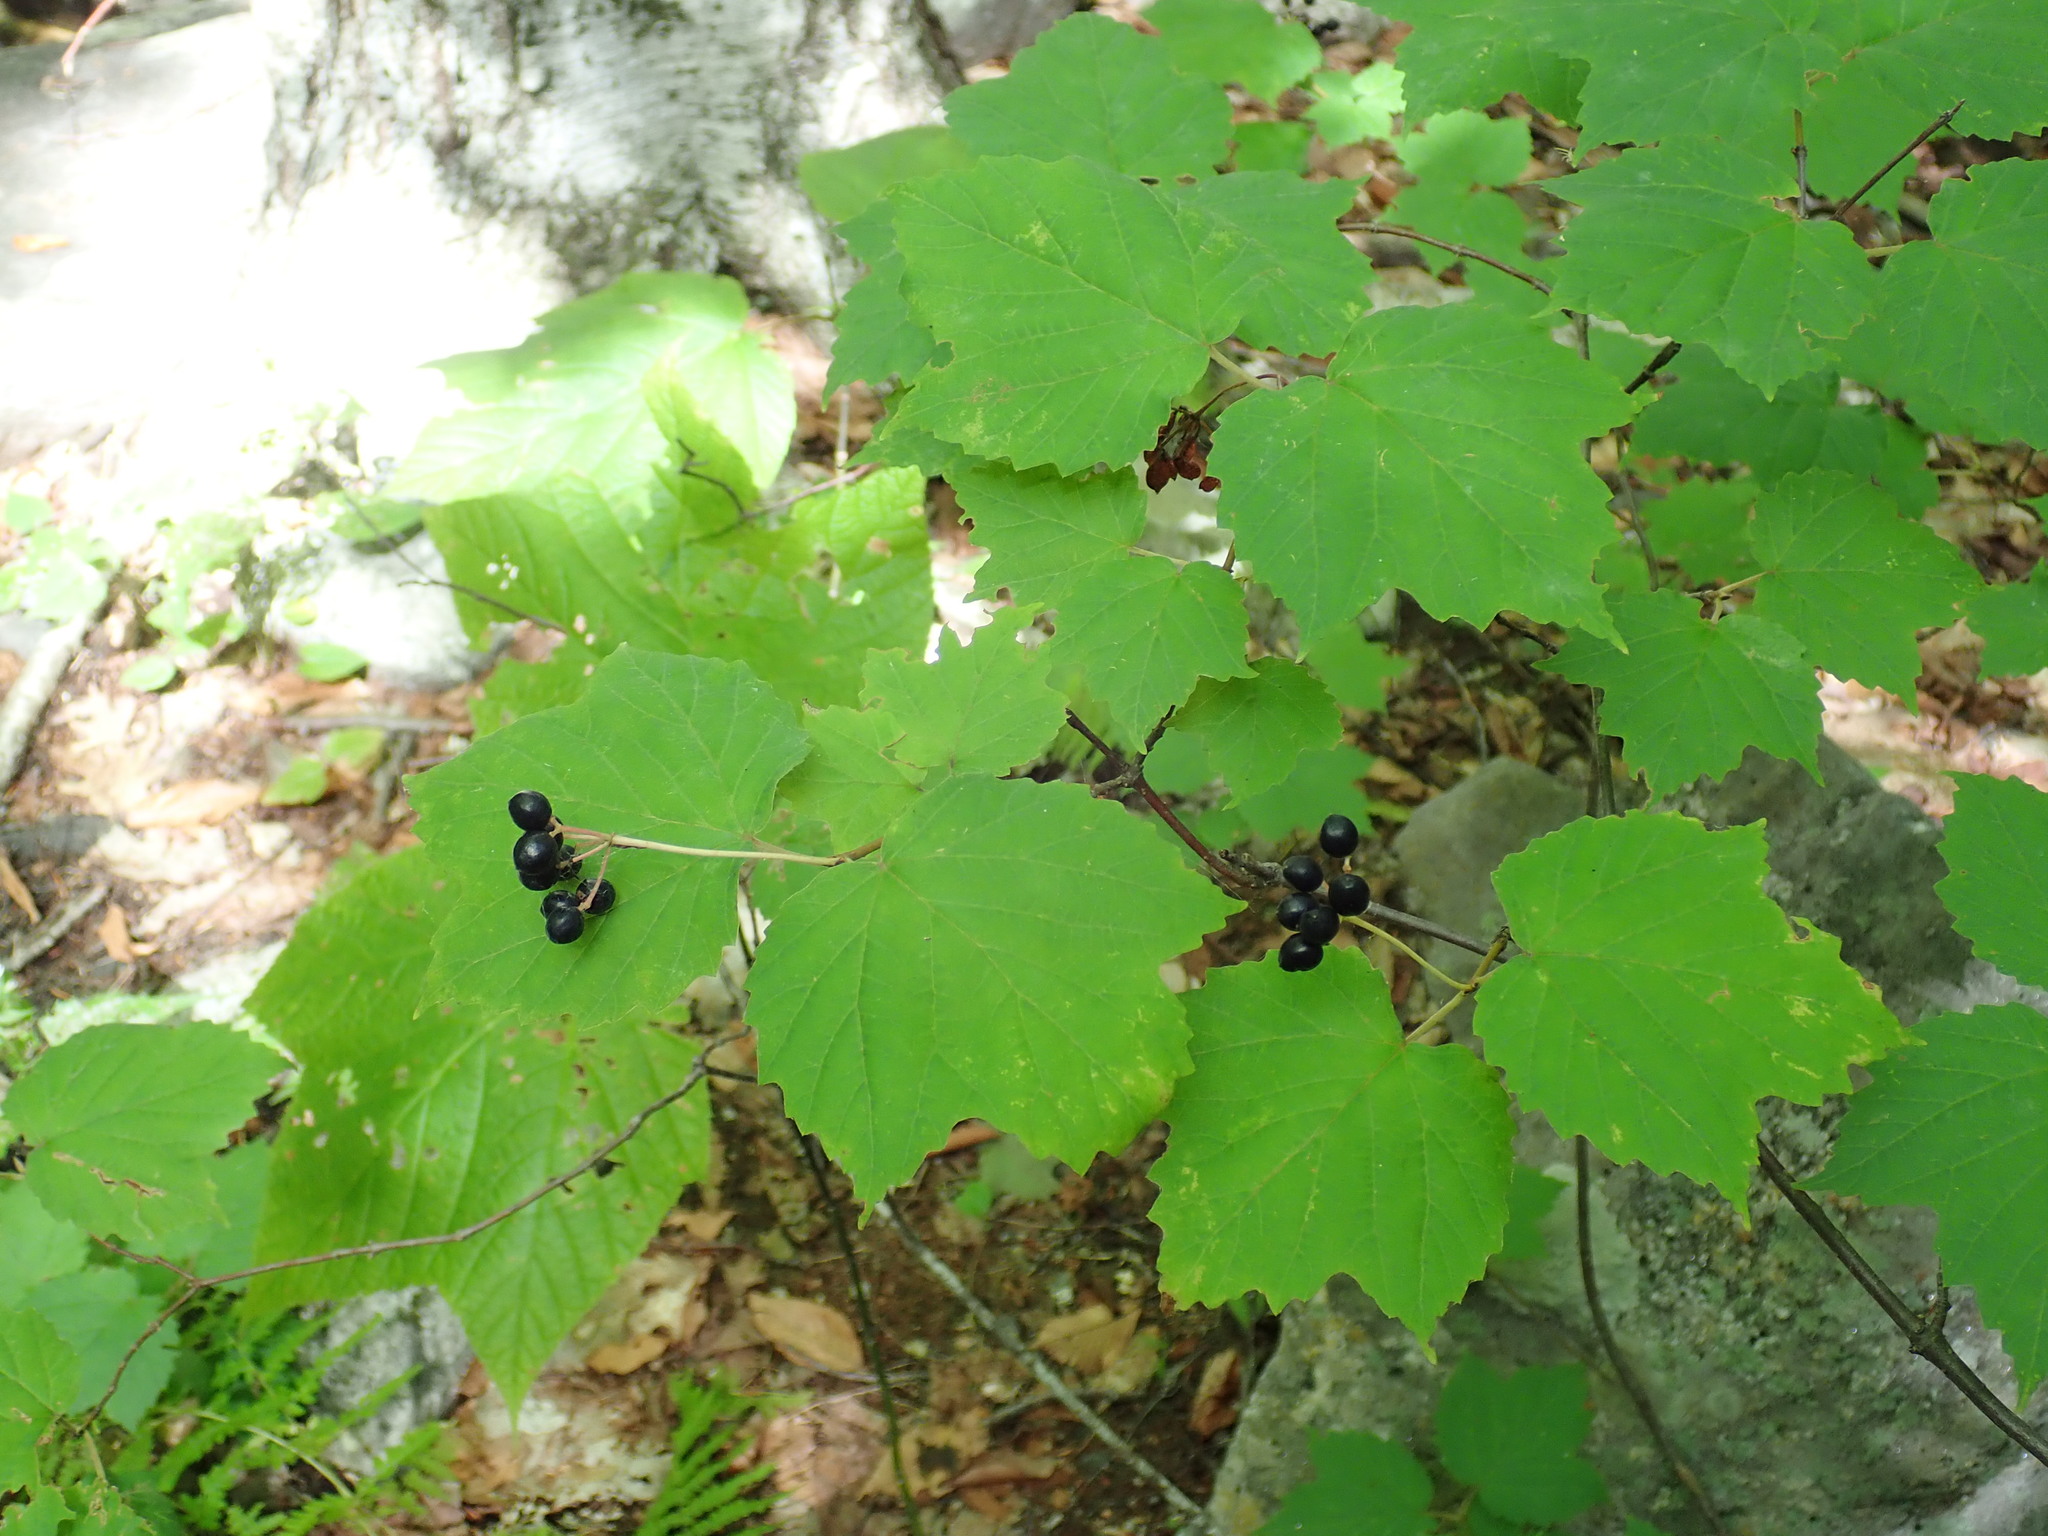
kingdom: Plantae
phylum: Tracheophyta
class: Magnoliopsida
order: Dipsacales
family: Viburnaceae
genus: Viburnum
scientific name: Viburnum acerifolium
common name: Dockmackie
